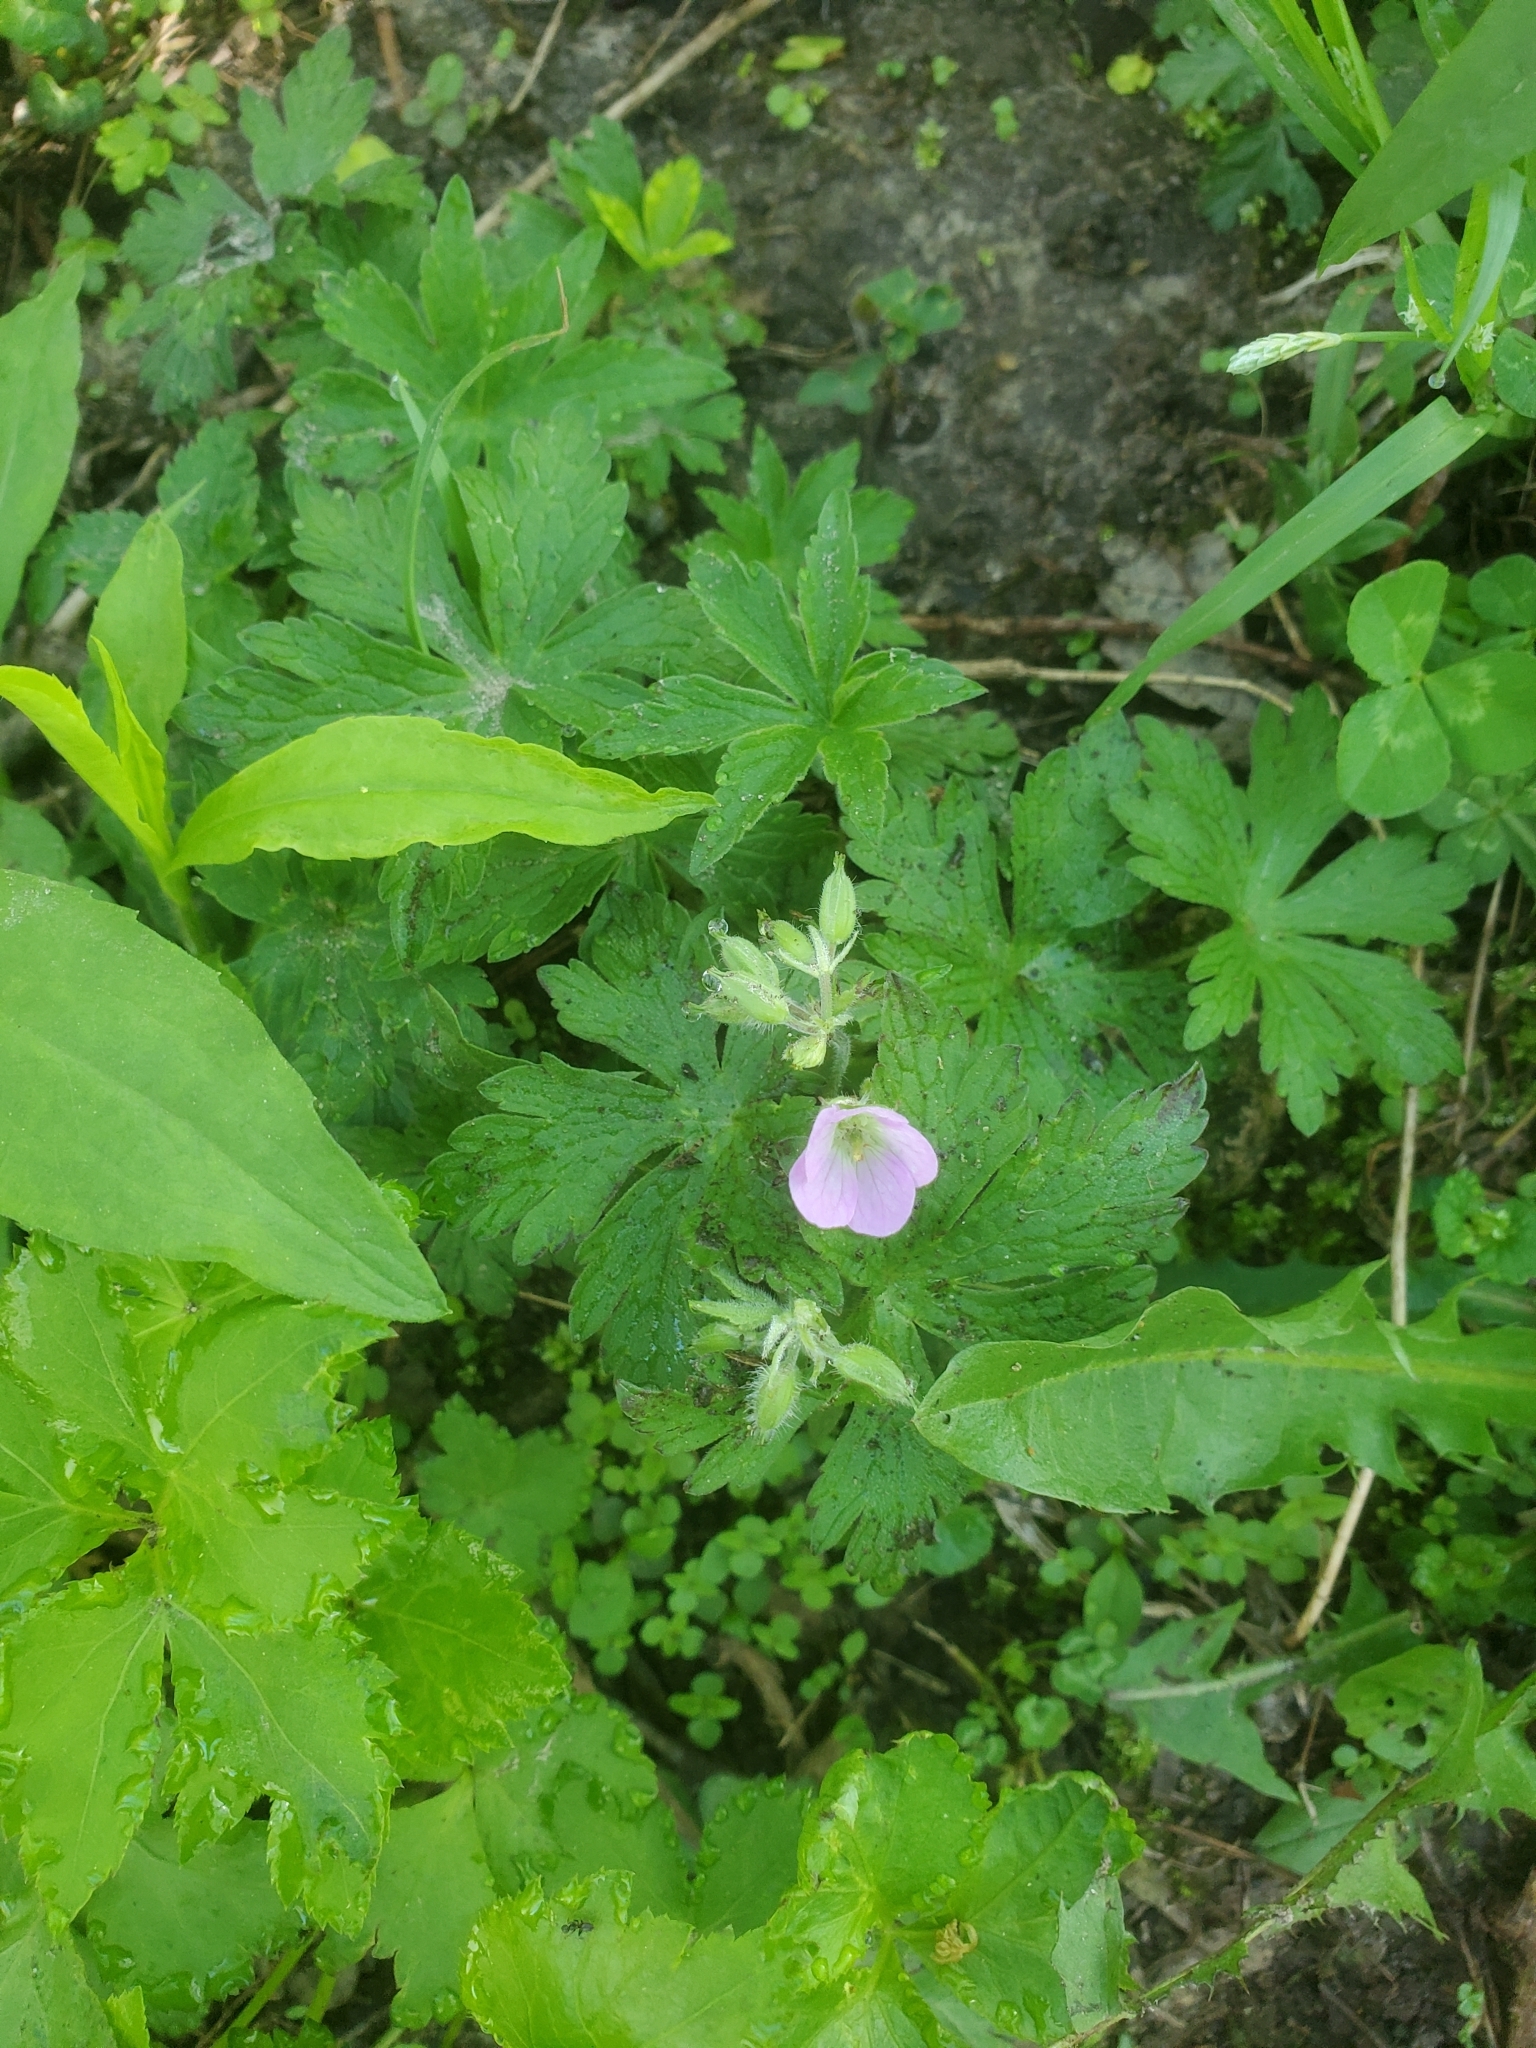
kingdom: Plantae
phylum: Tracheophyta
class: Magnoliopsida
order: Geraniales
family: Geraniaceae
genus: Geranium
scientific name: Geranium maculatum
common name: Spotted geranium
